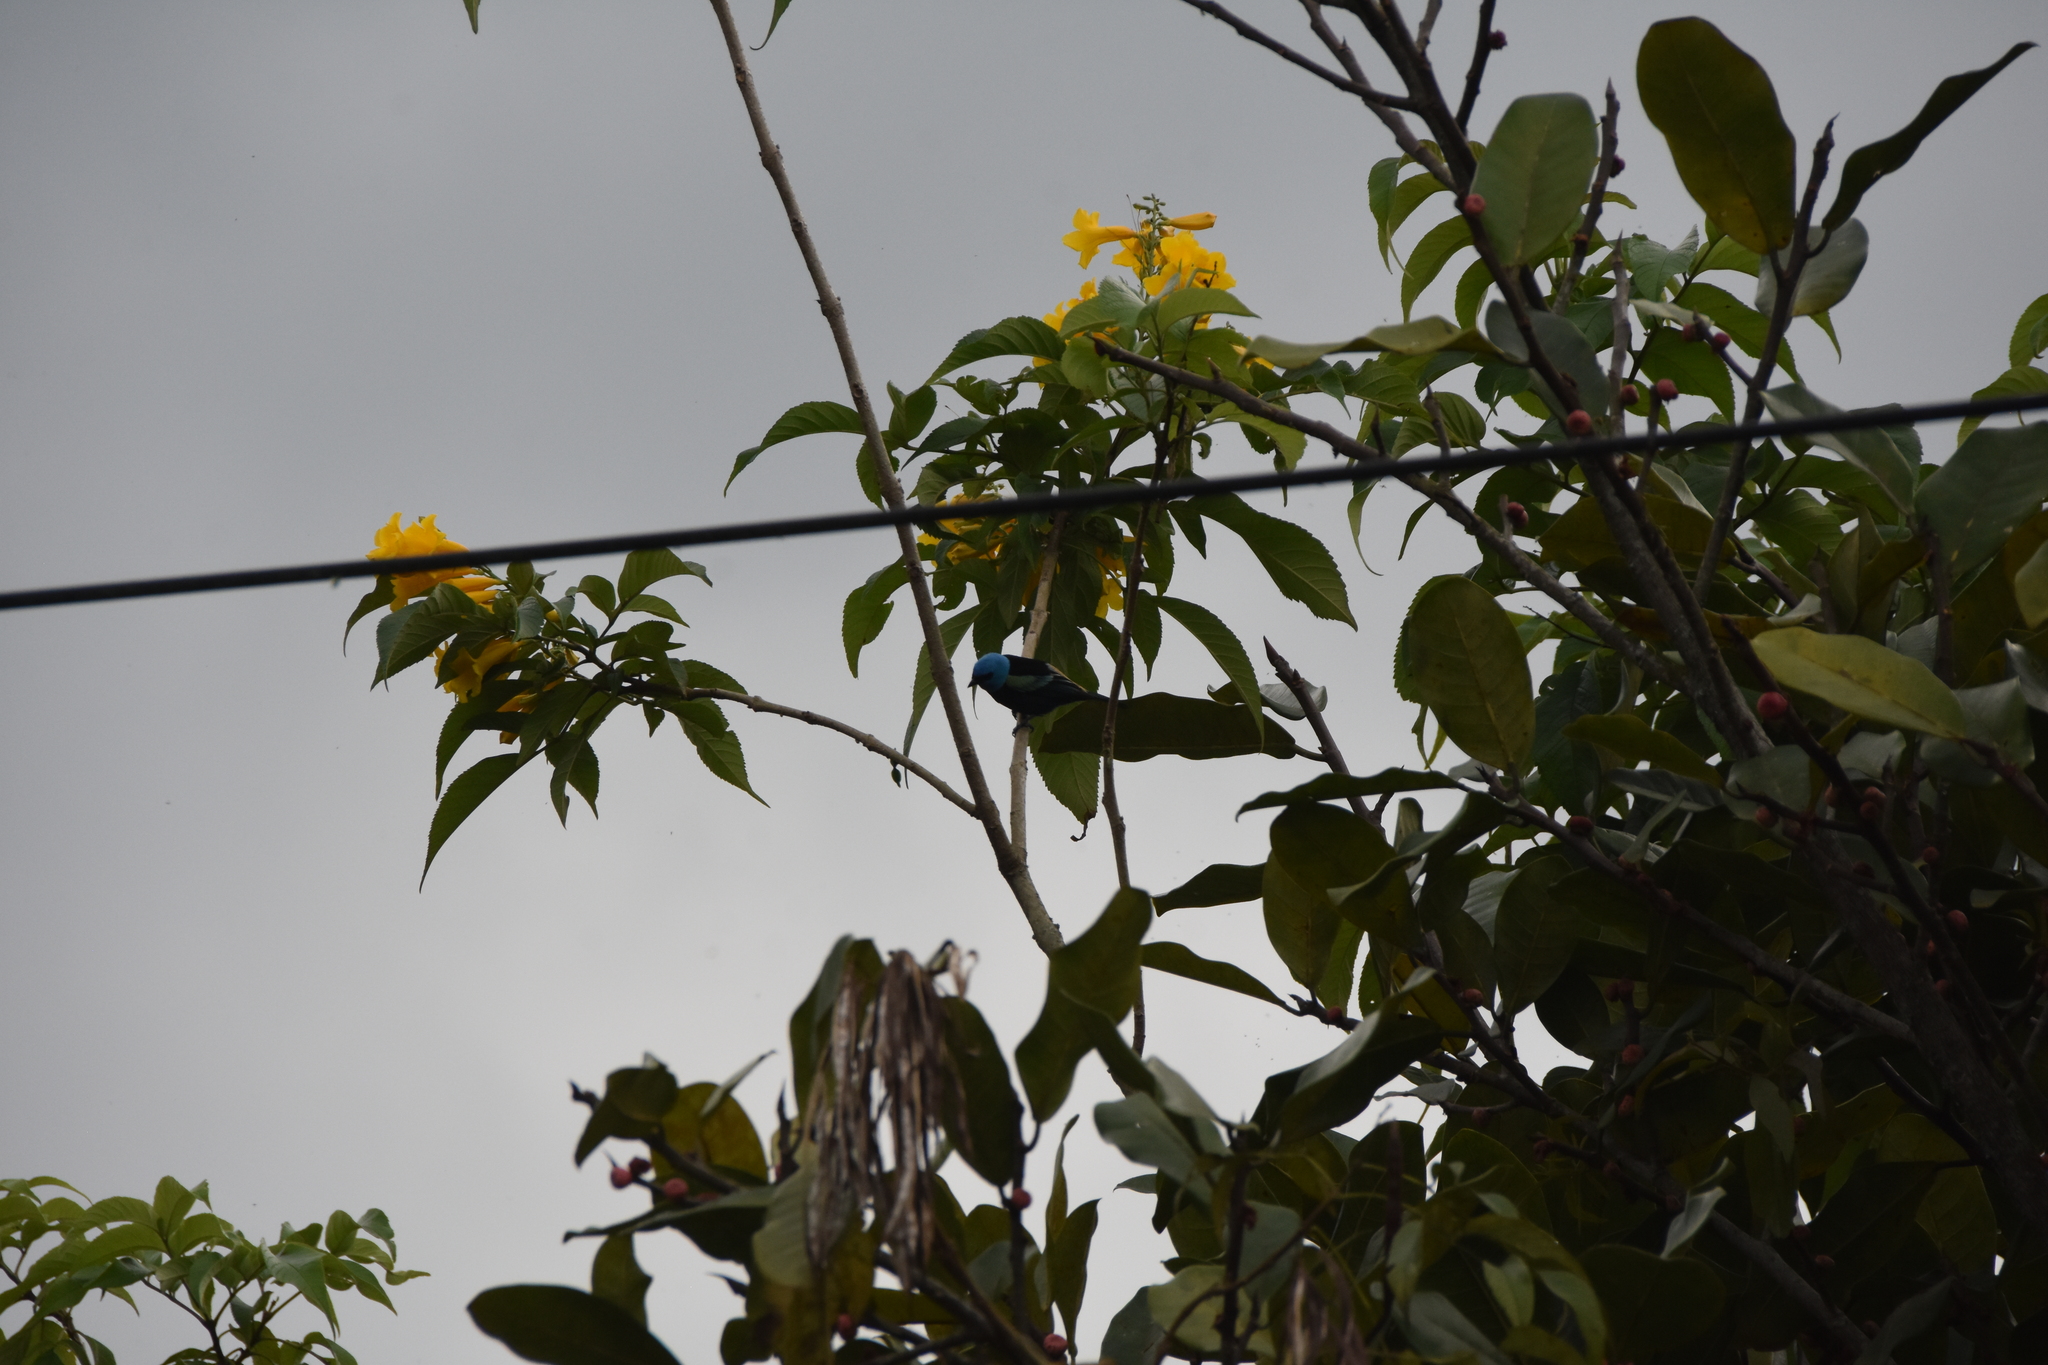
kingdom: Animalia
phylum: Chordata
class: Aves
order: Passeriformes
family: Thraupidae
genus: Stilpnia
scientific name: Stilpnia cyanicollis
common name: Blue-necked tanager
